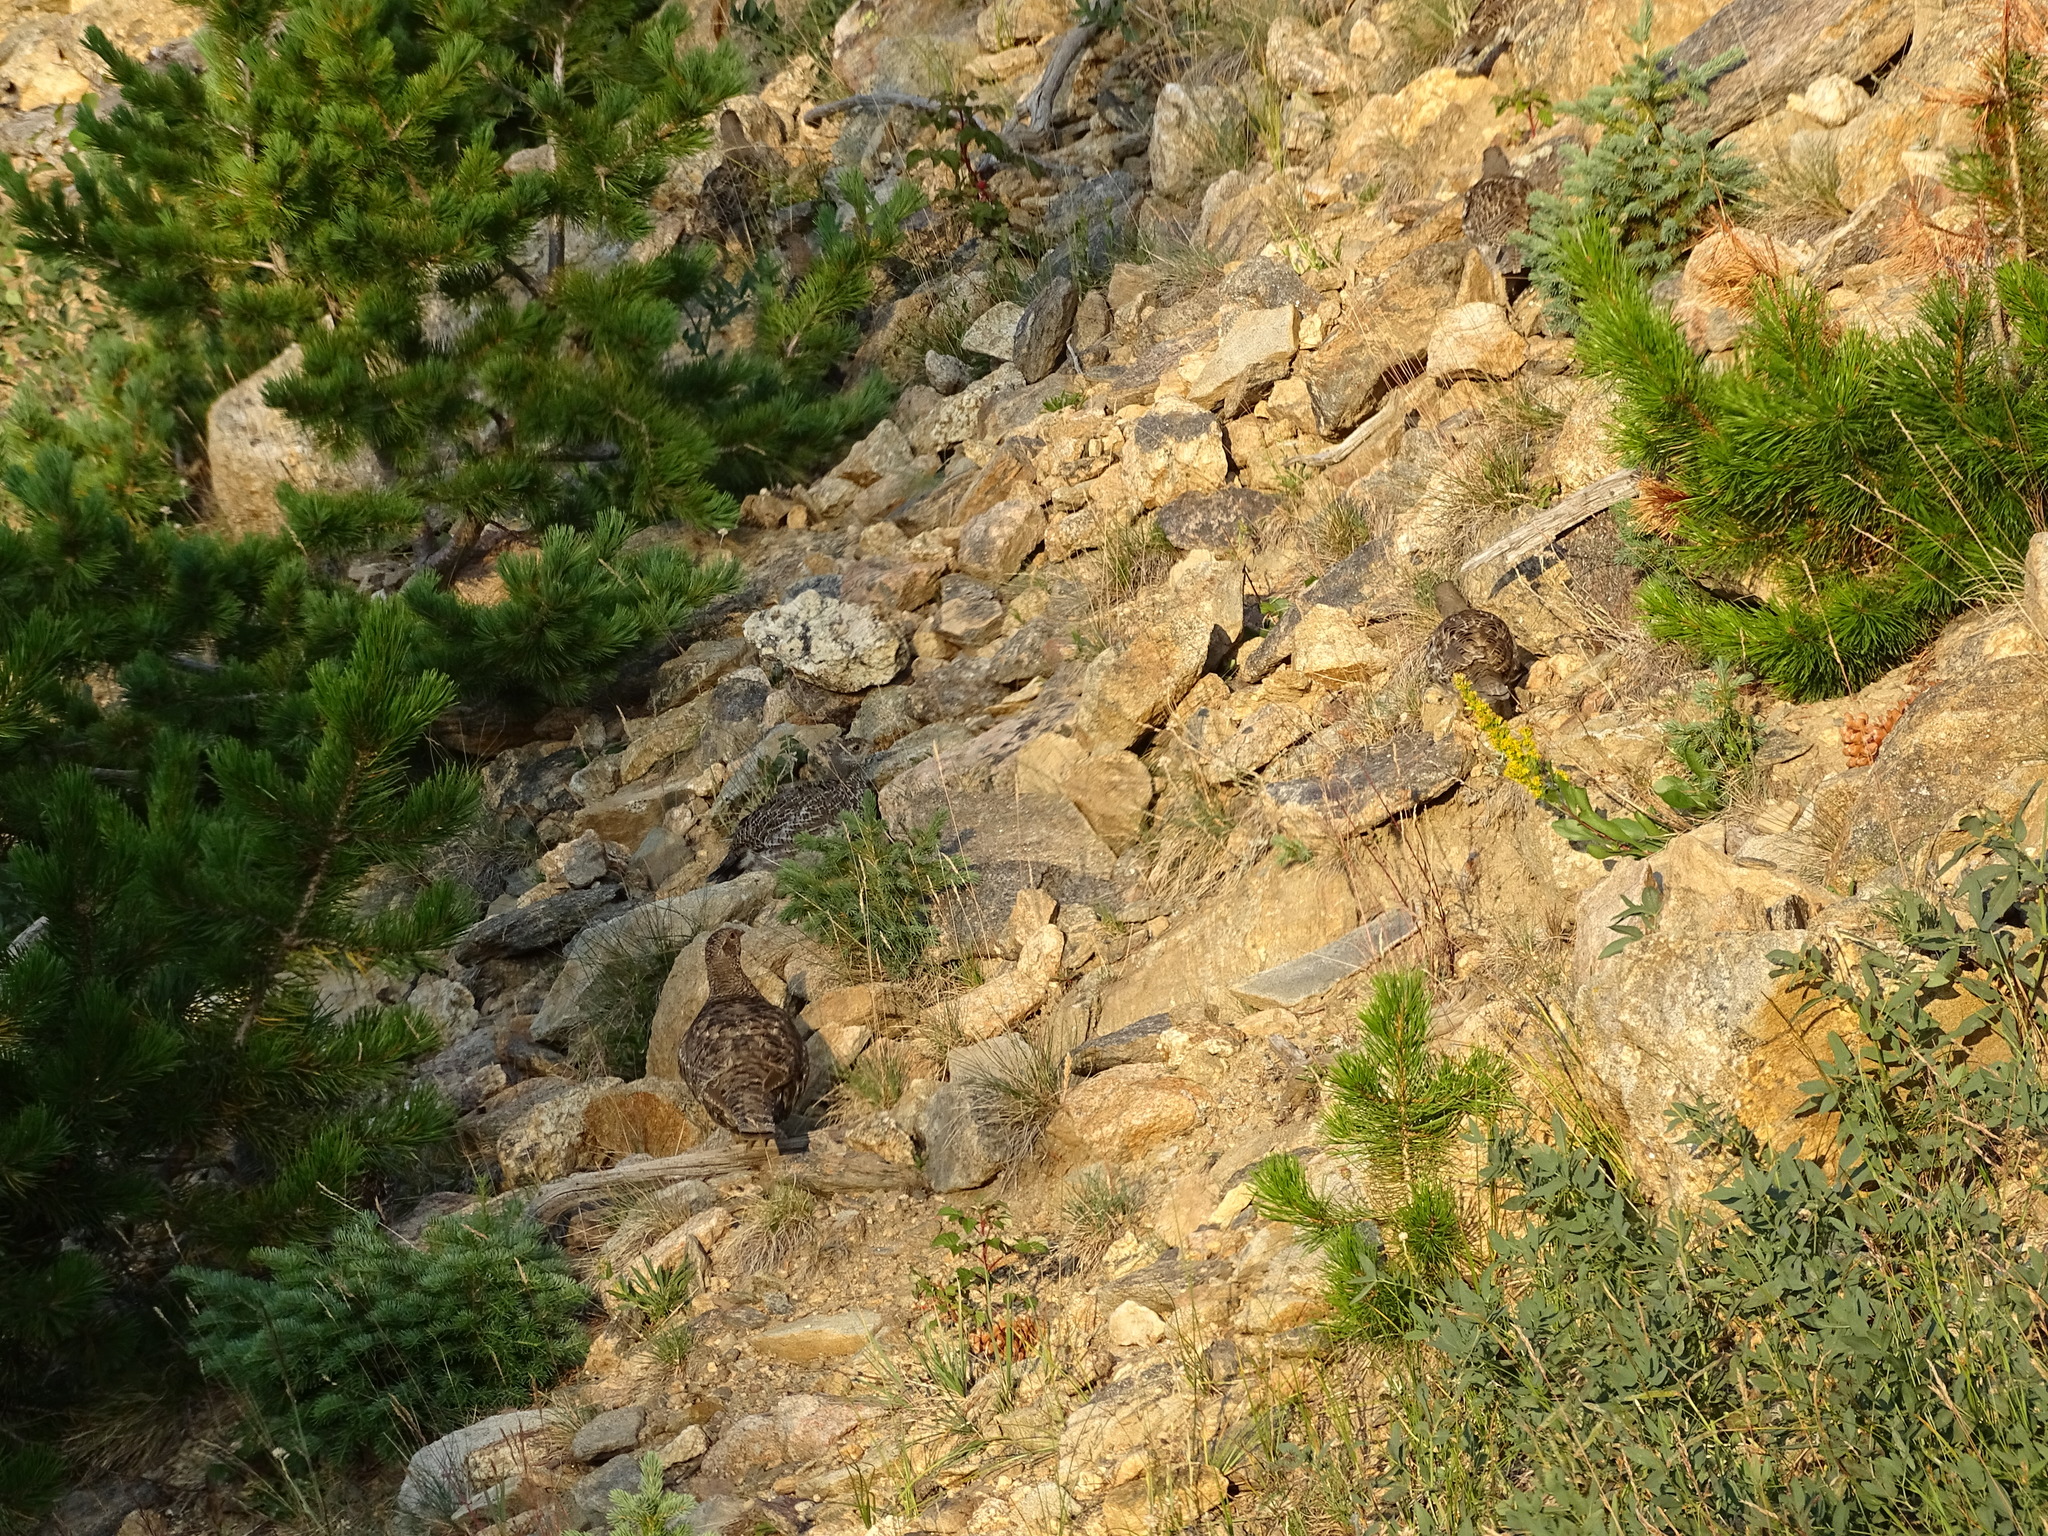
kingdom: Animalia
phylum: Chordata
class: Aves
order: Galliformes
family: Phasianidae
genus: Dendragapus
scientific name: Dendragapus obscurus
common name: Dusky grouse
